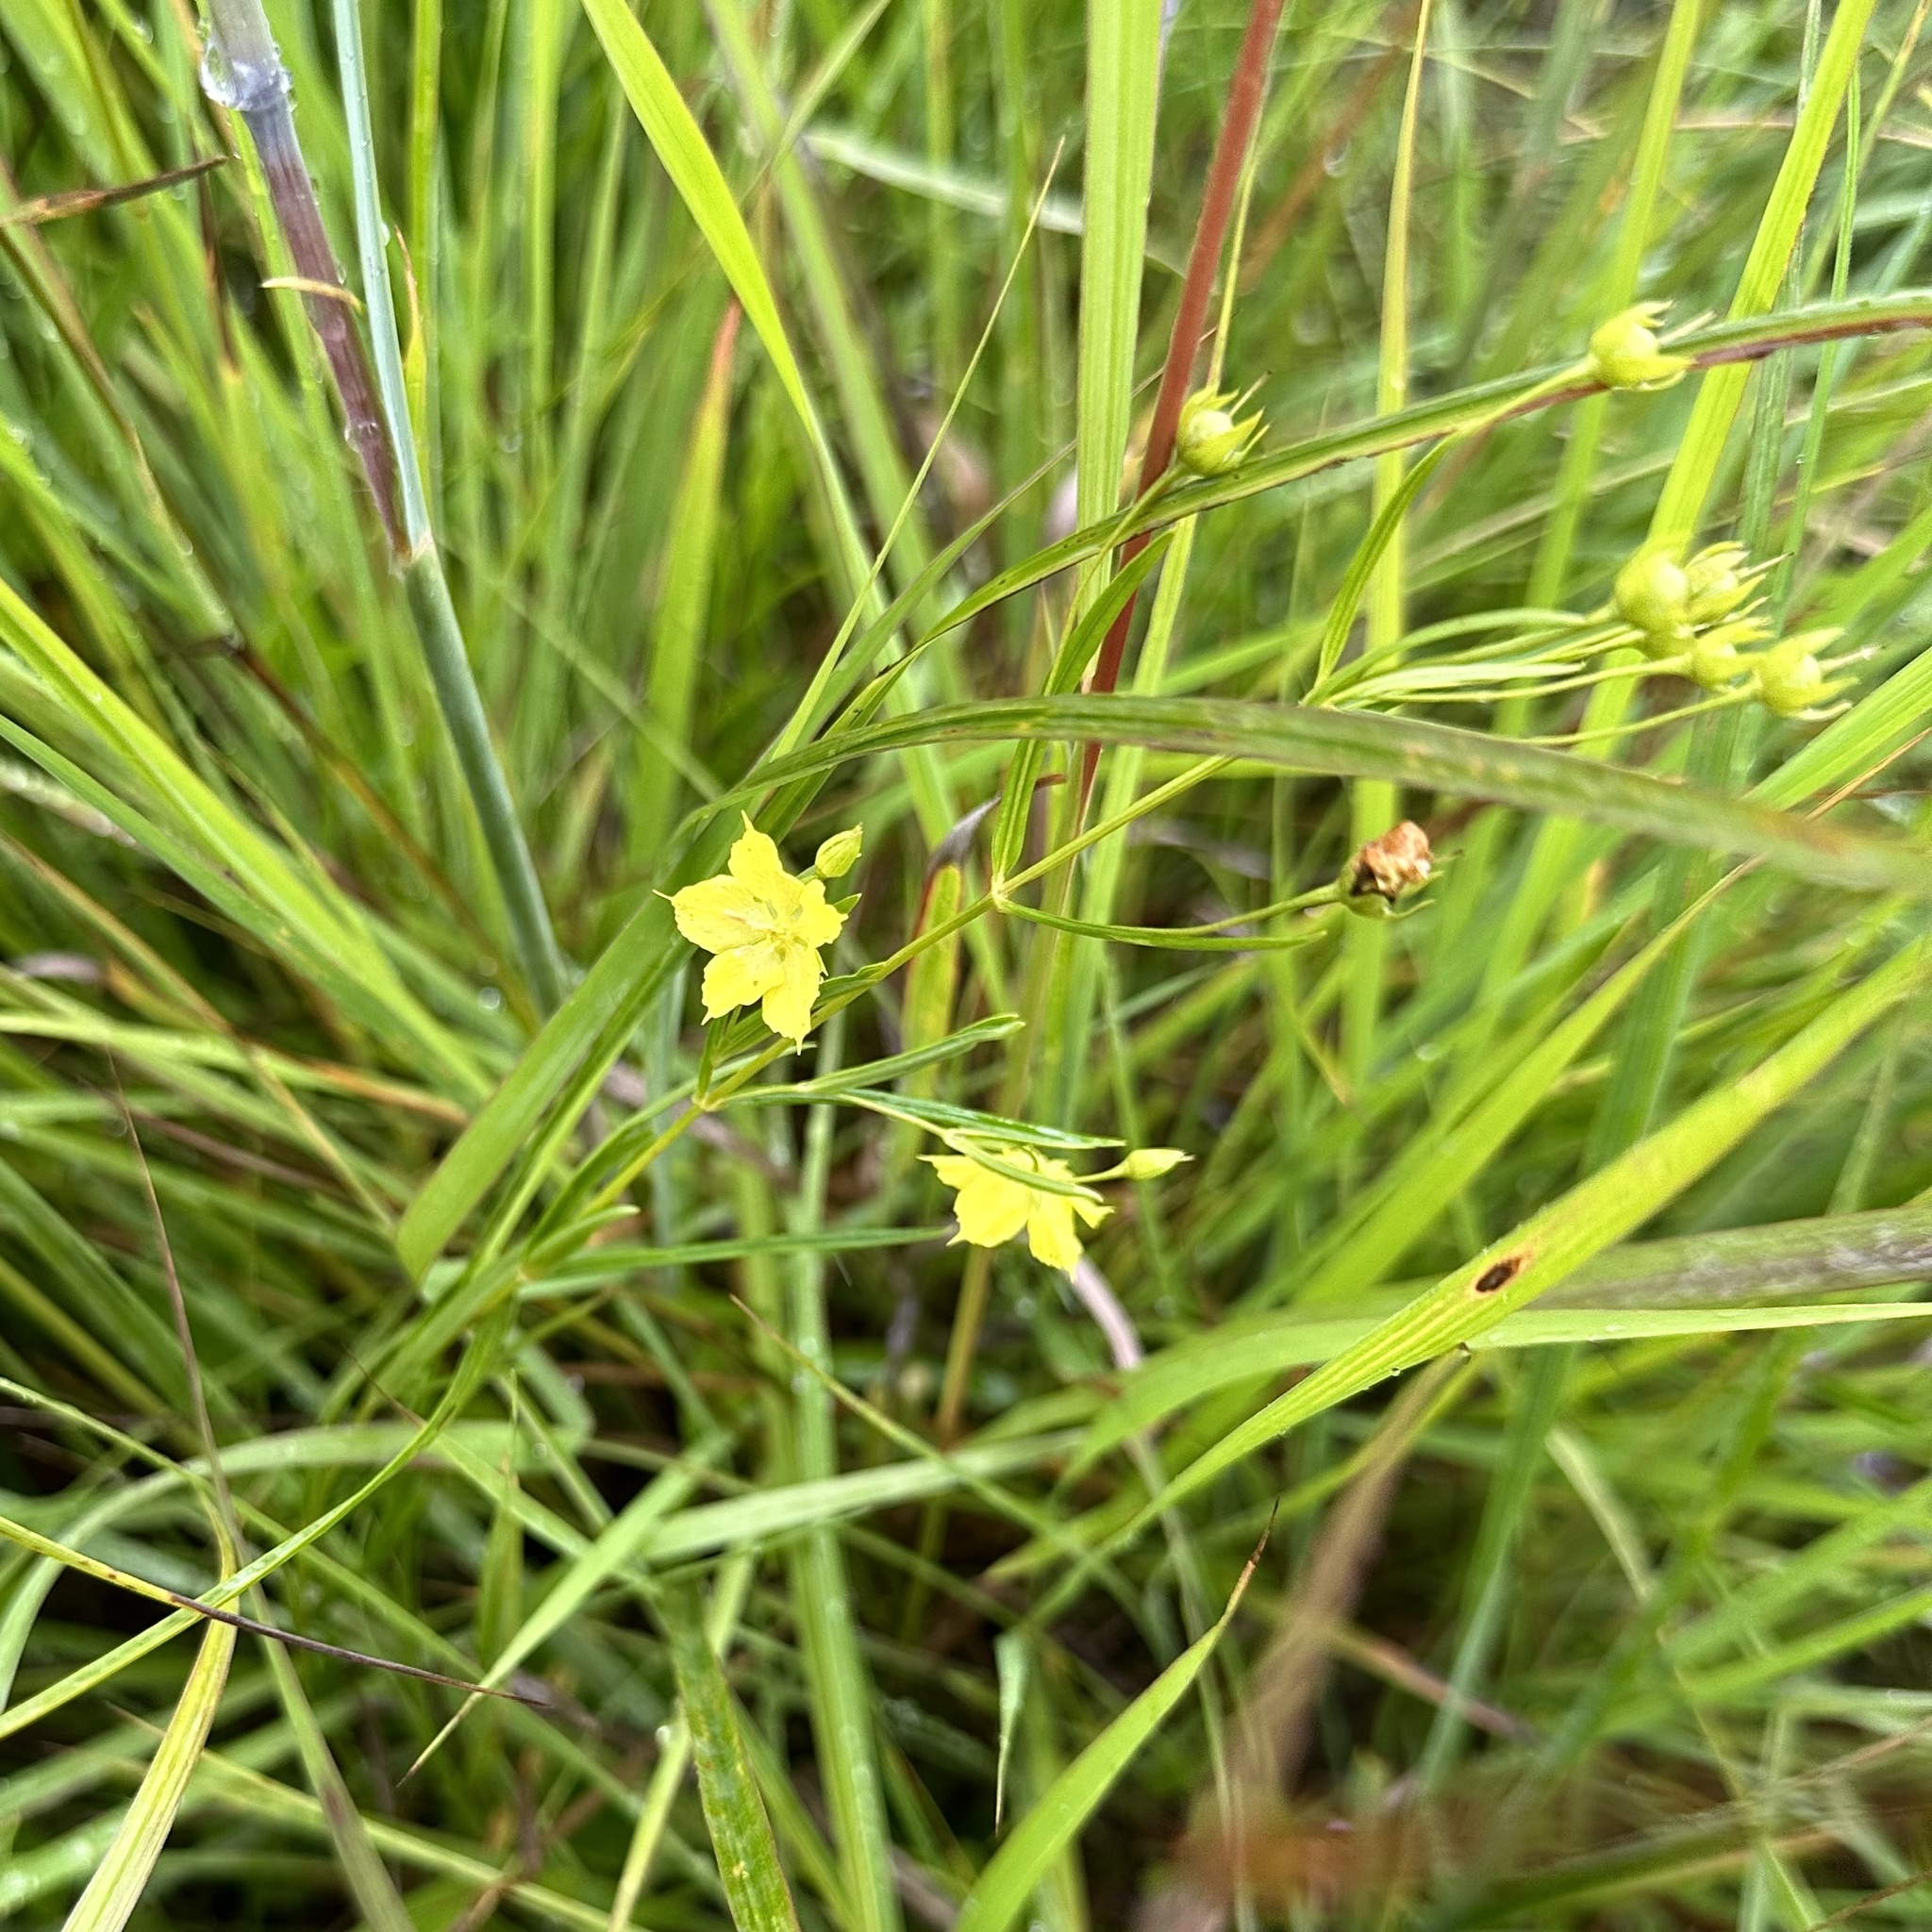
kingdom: Plantae
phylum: Tracheophyta
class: Magnoliopsida
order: Ericales
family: Primulaceae
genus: Lysimachia
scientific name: Lysimachia quadriflora
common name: Four-flowered loosestrife
